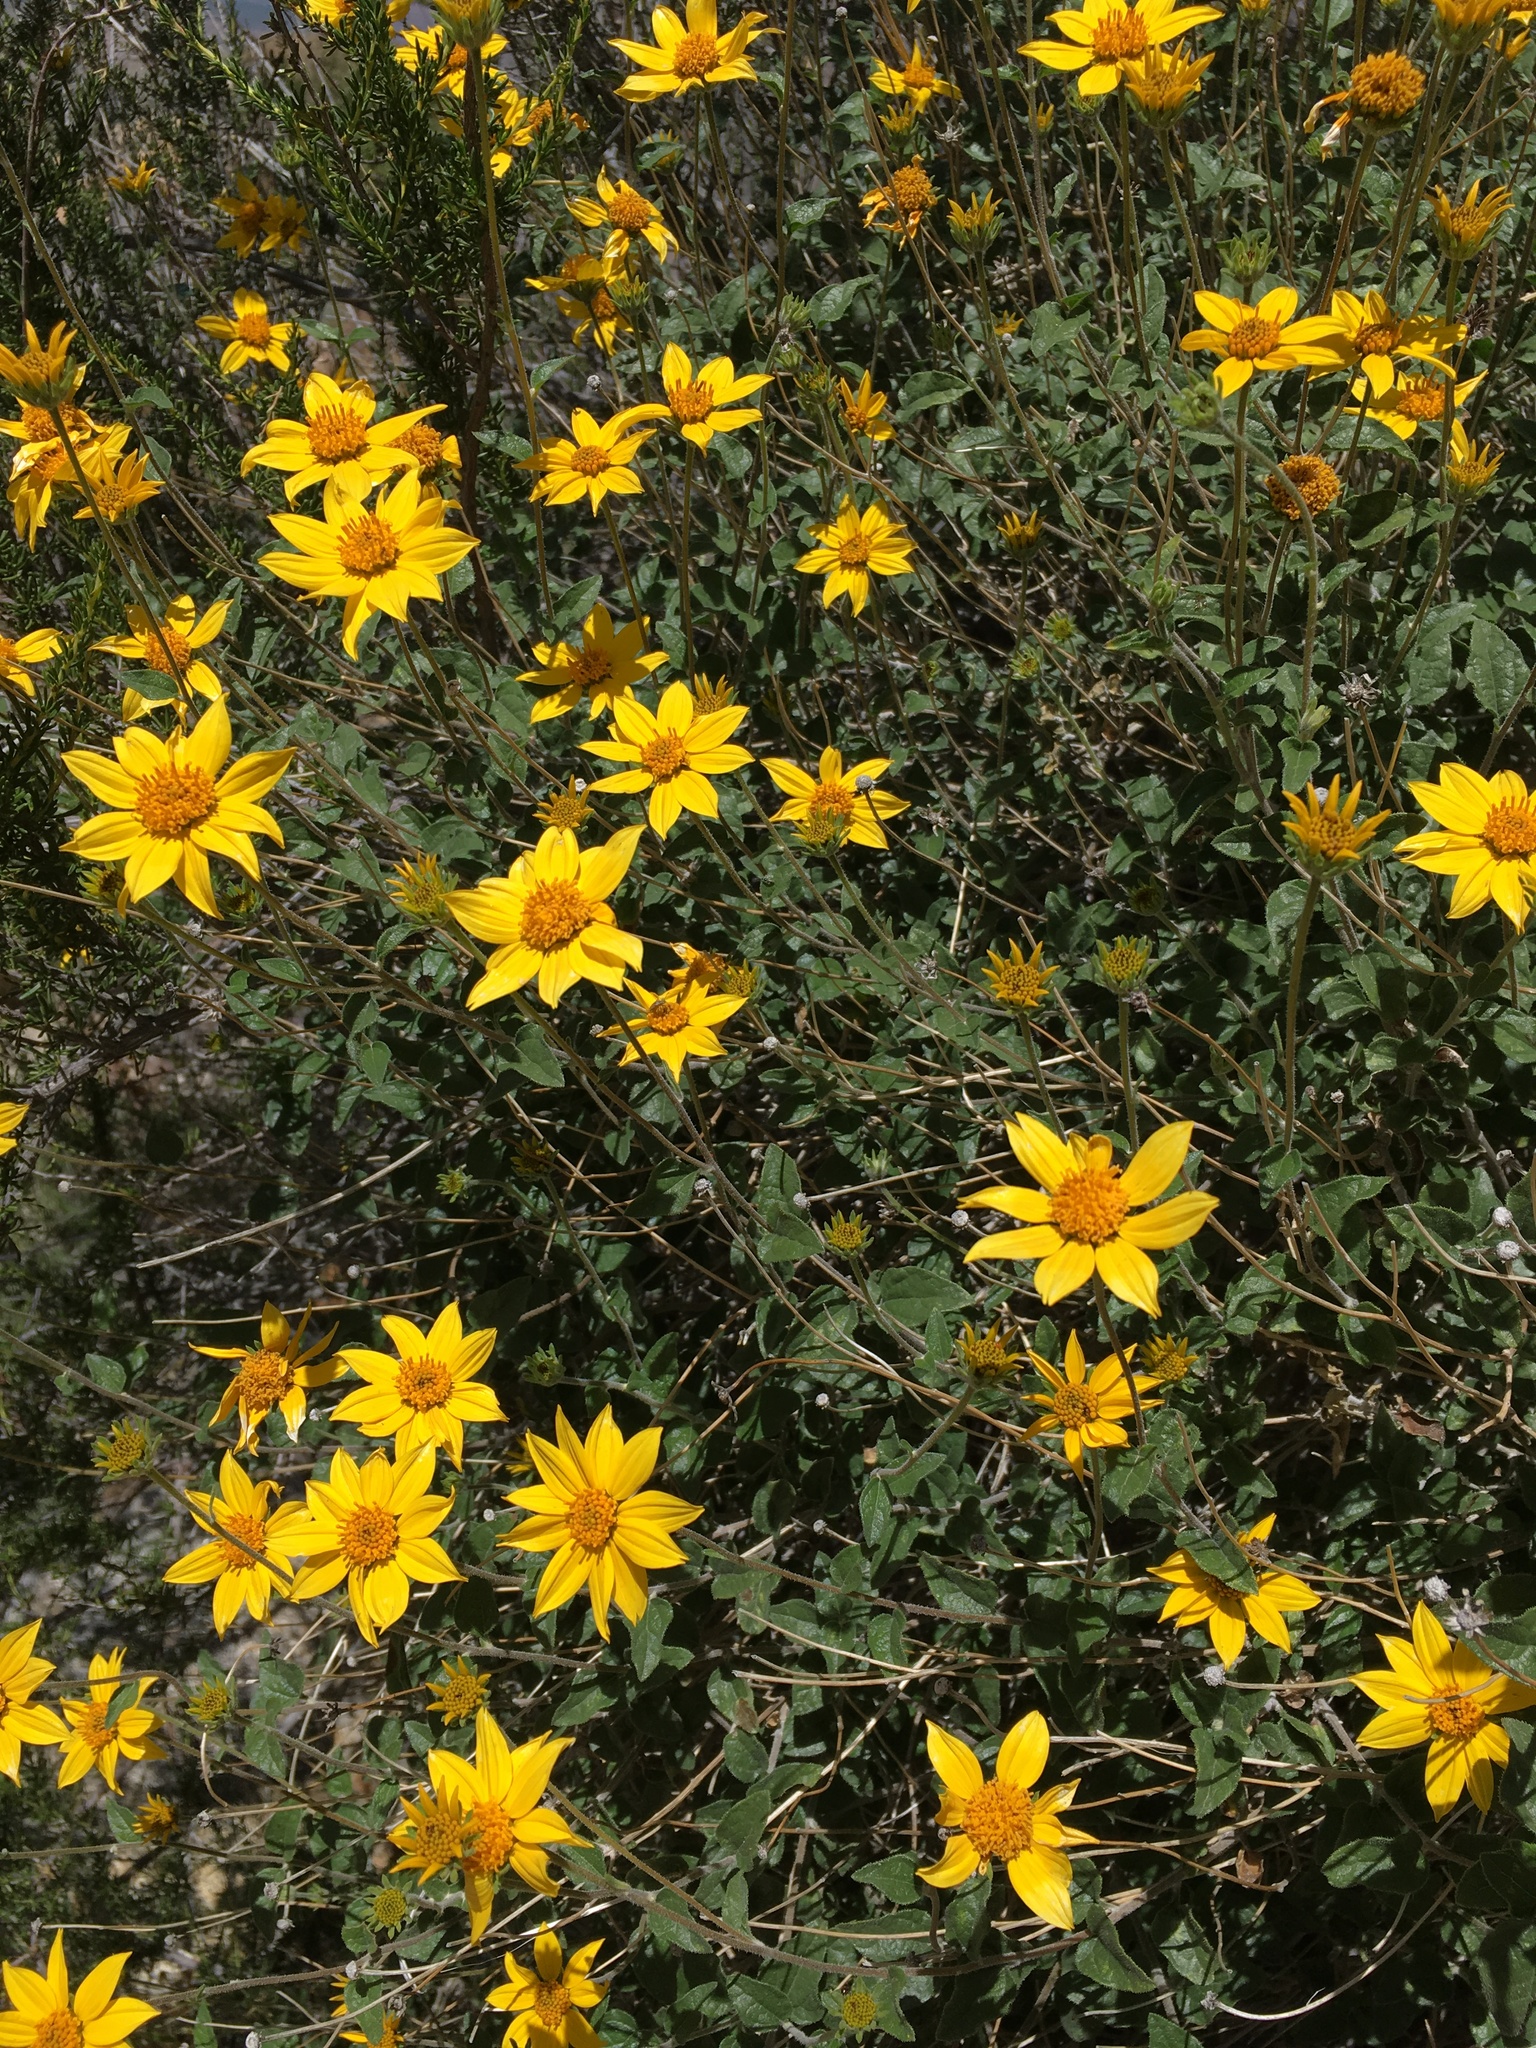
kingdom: Plantae
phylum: Tracheophyta
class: Magnoliopsida
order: Asterales
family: Asteraceae
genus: Bahiopsis
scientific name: Bahiopsis parishii
